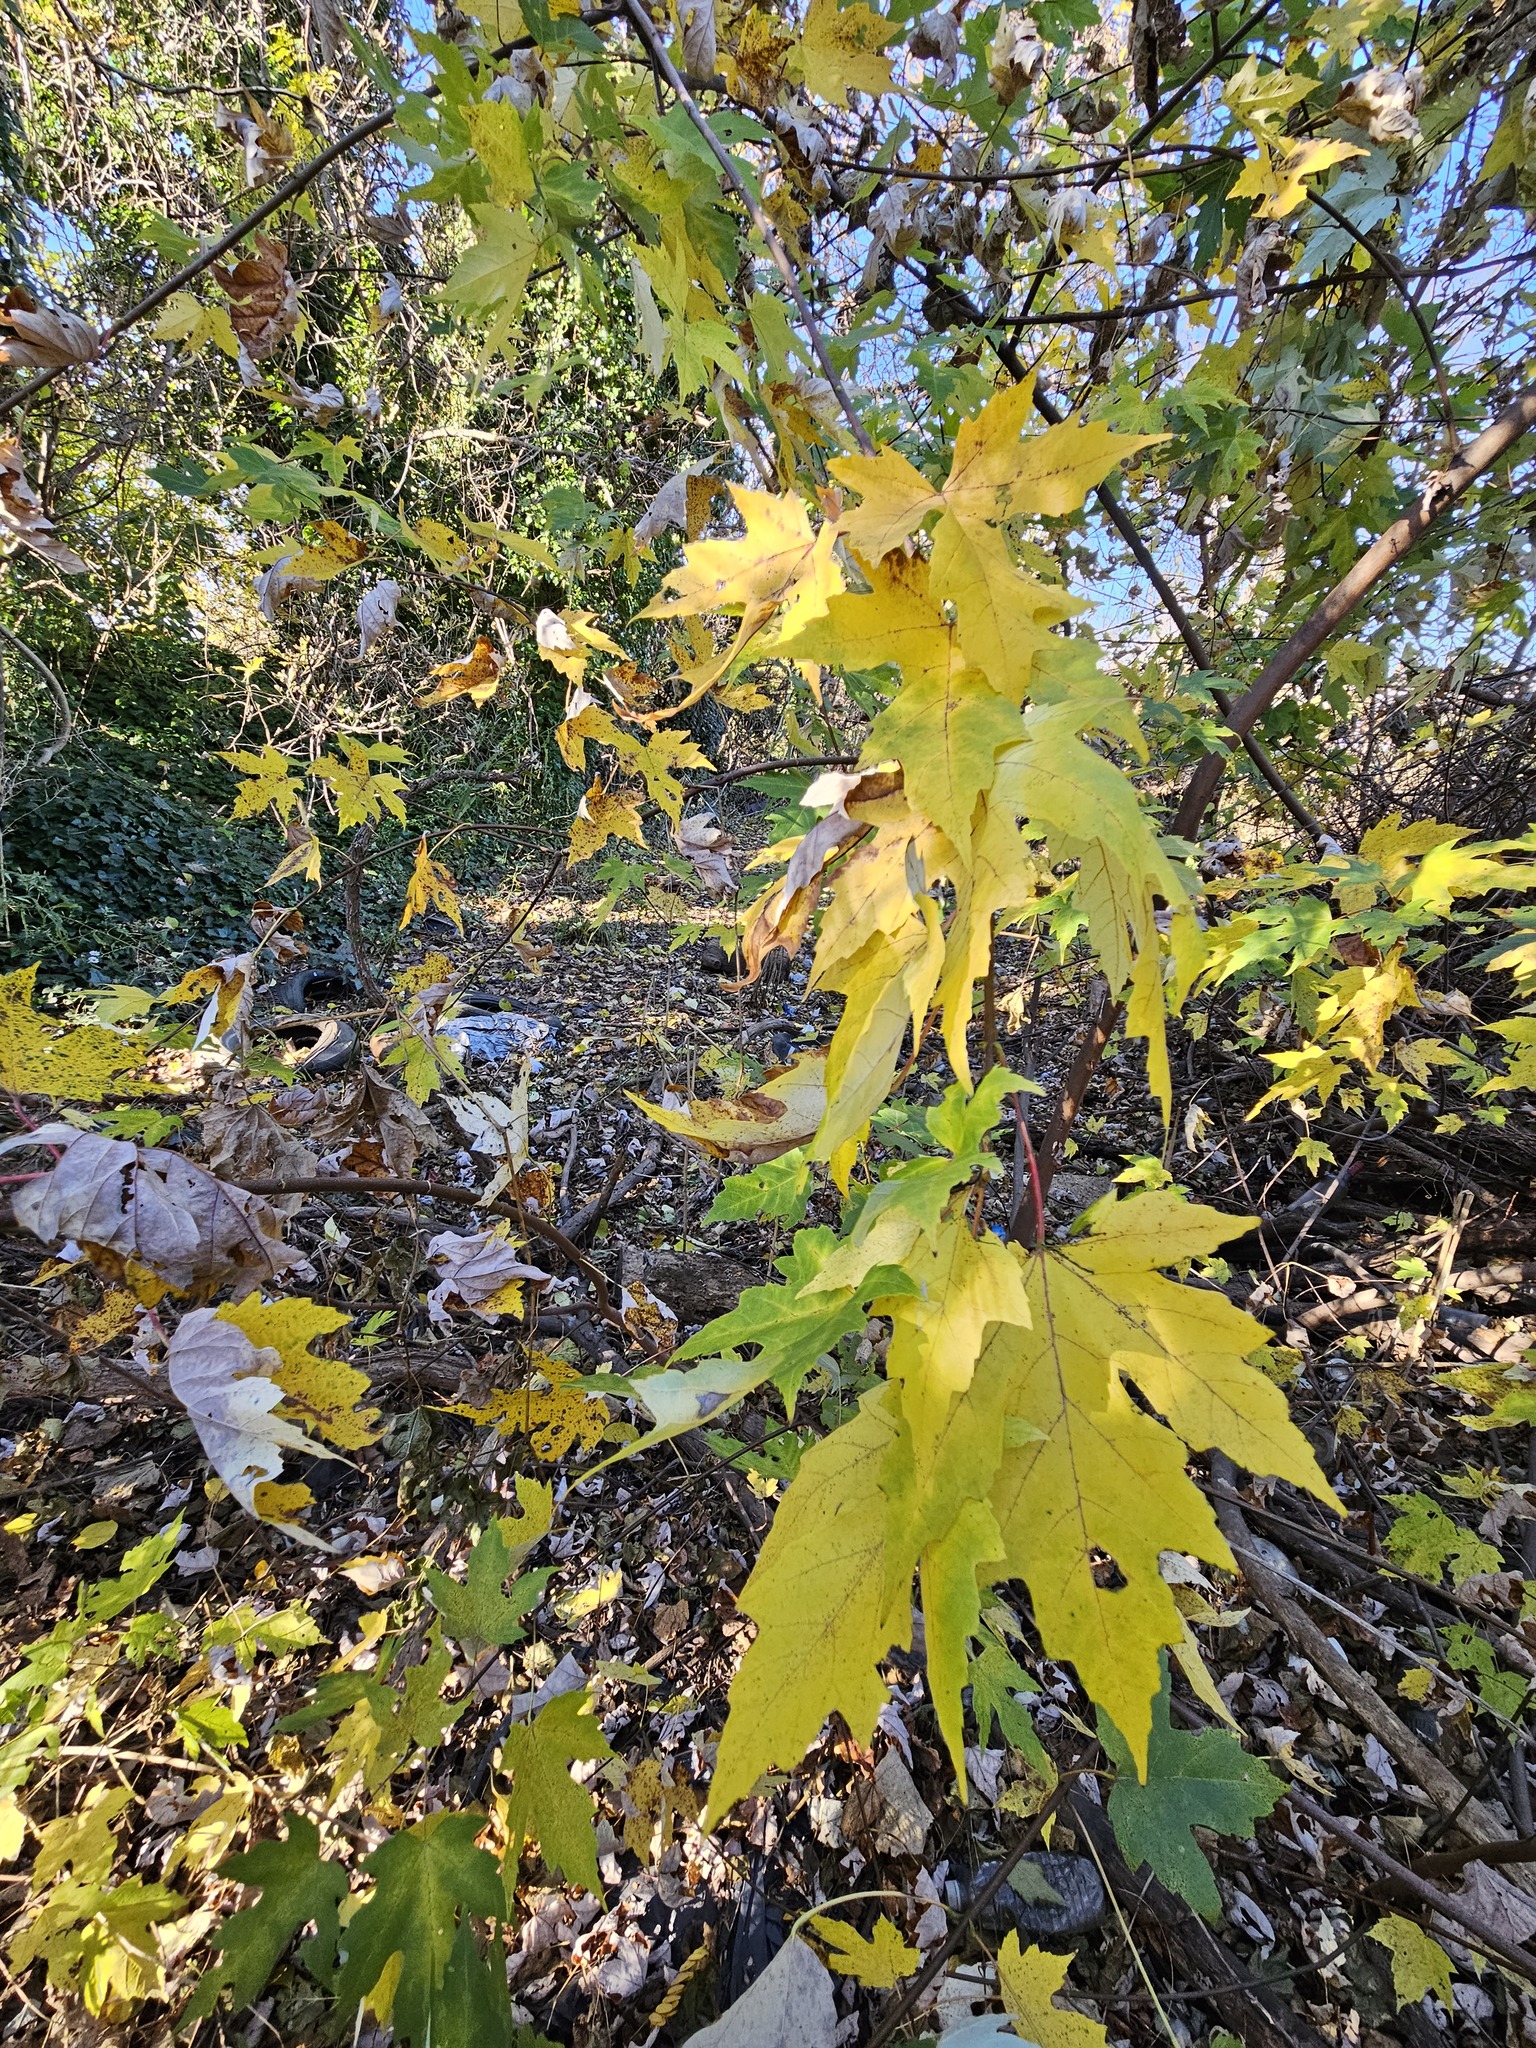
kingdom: Plantae
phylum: Tracheophyta
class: Magnoliopsida
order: Sapindales
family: Sapindaceae
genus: Acer
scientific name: Acer saccharinum
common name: Silver maple
